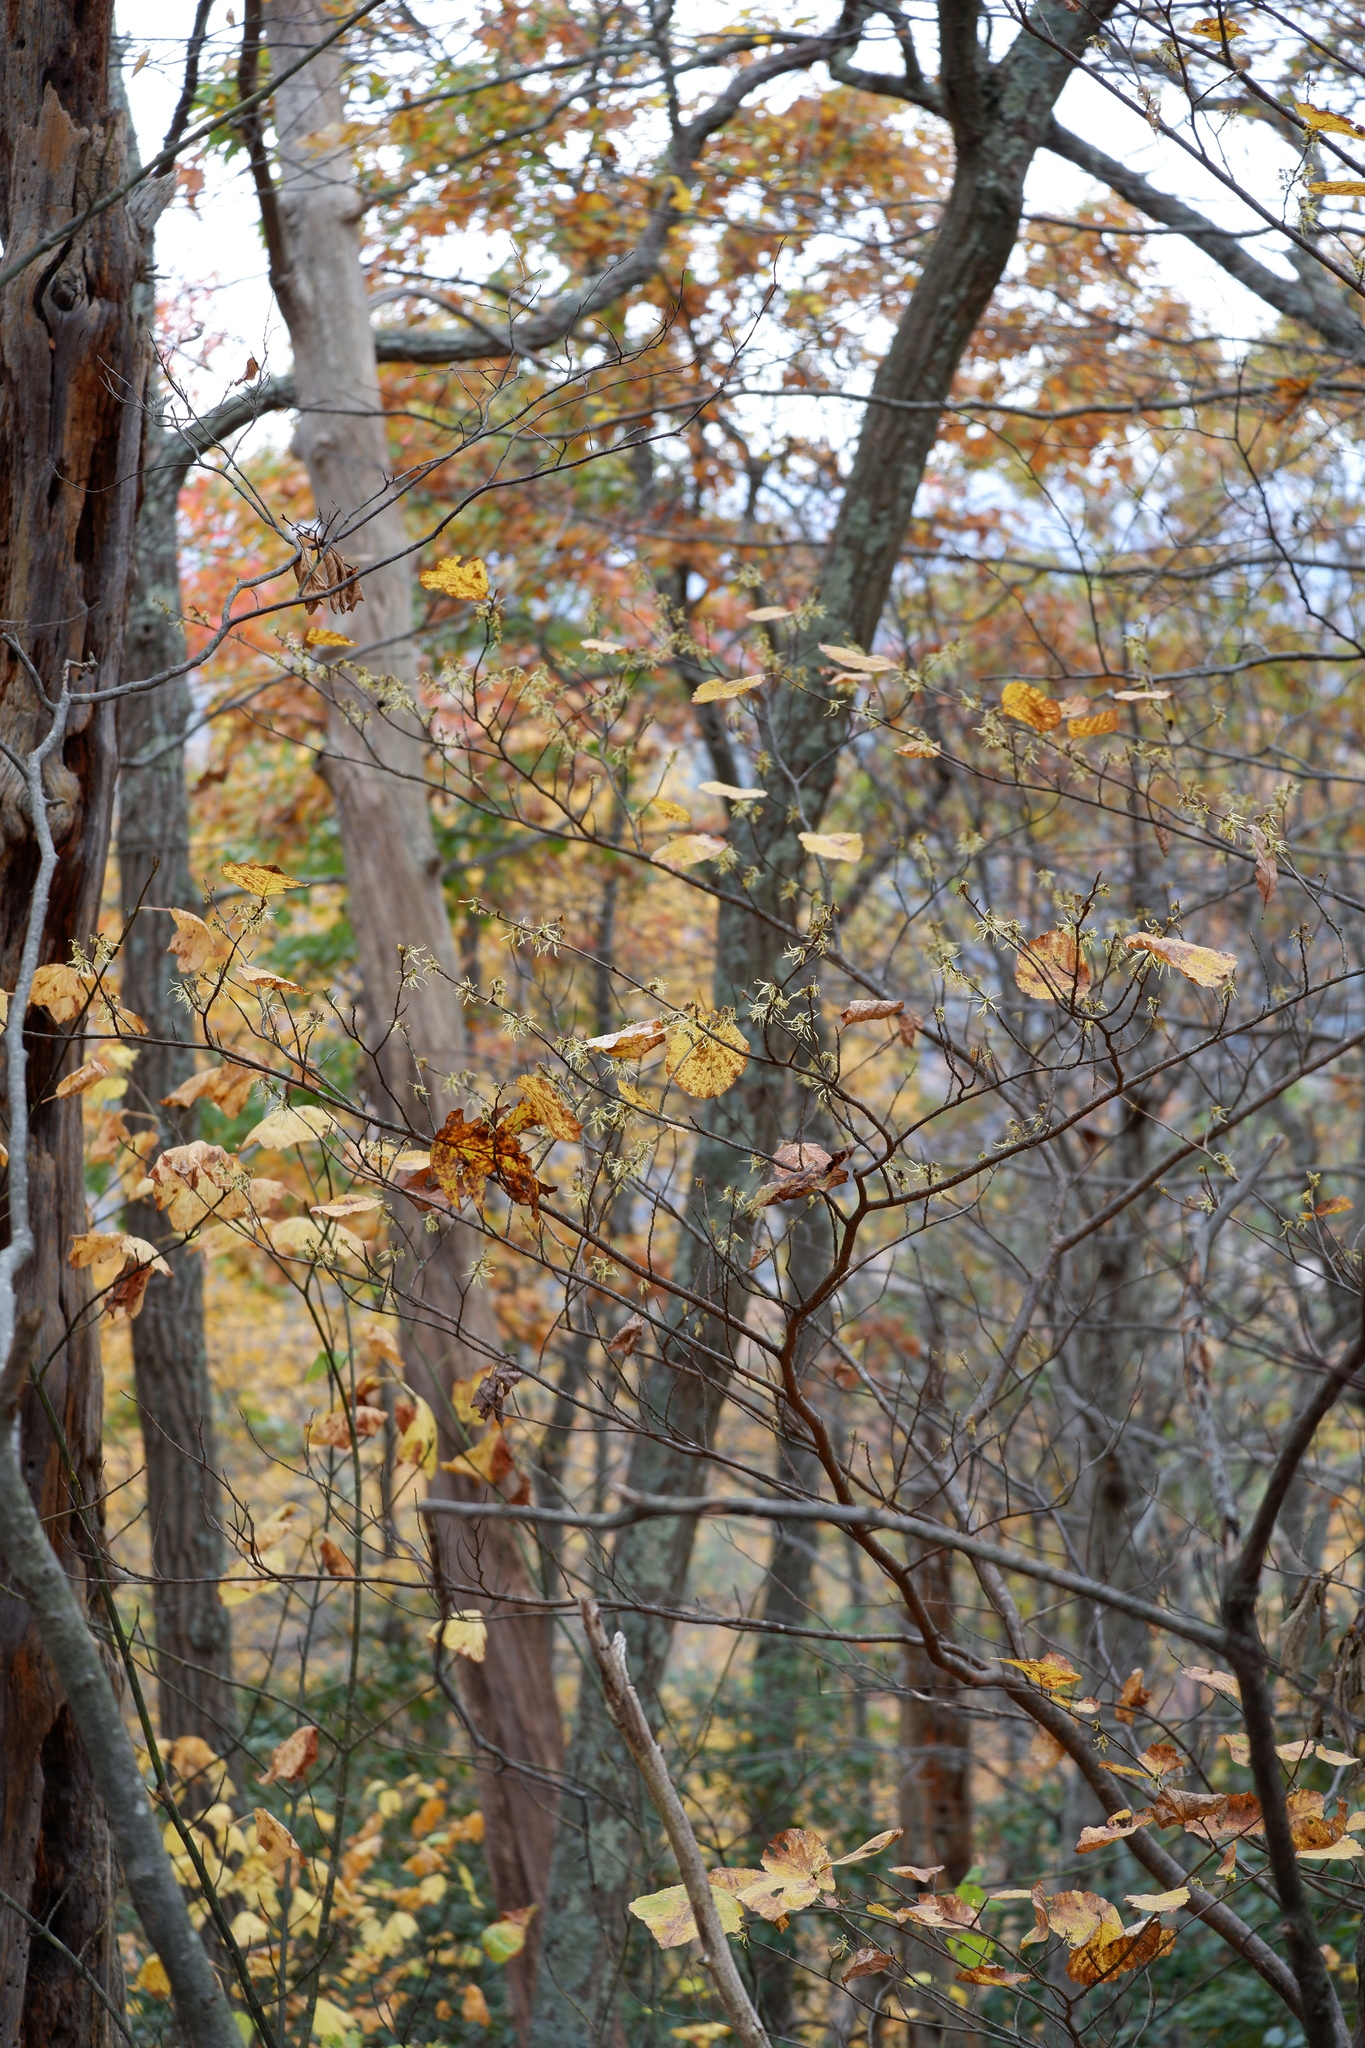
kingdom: Plantae
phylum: Tracheophyta
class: Magnoliopsida
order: Saxifragales
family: Hamamelidaceae
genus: Hamamelis
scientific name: Hamamelis virginiana
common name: Witch-hazel
